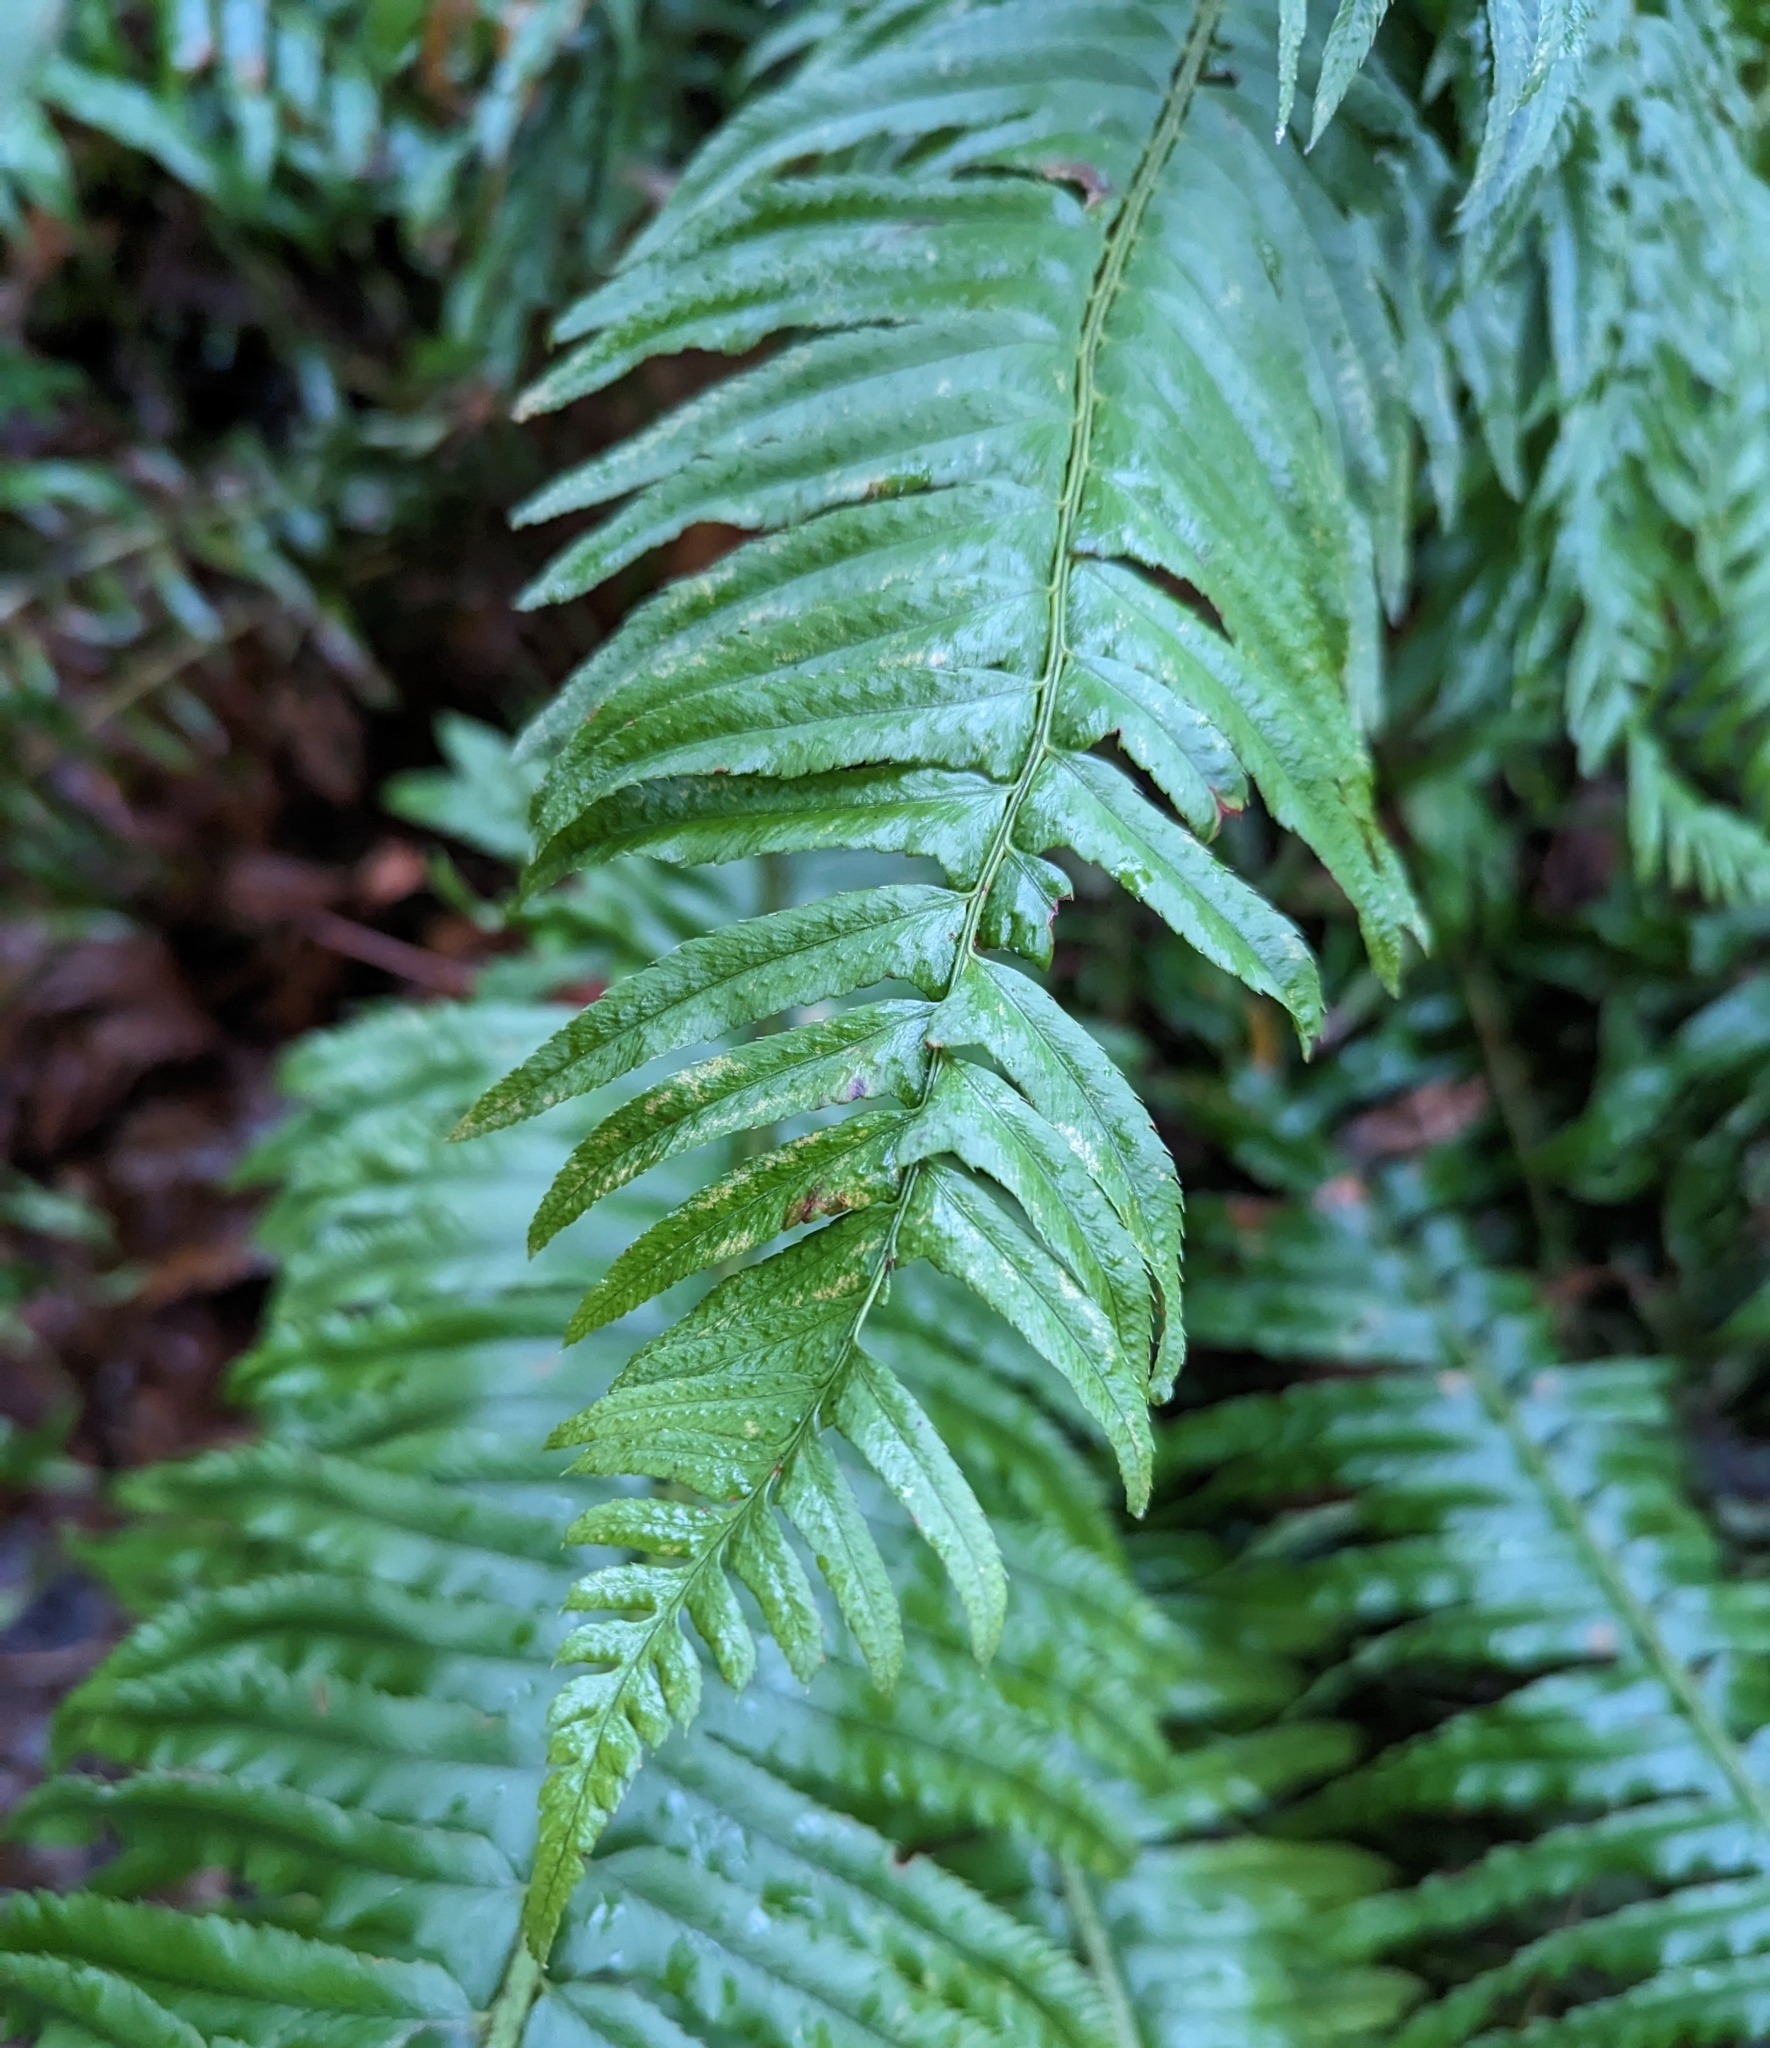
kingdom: Plantae
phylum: Tracheophyta
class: Polypodiopsida
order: Polypodiales
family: Dryopteridaceae
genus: Polystichum
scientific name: Polystichum munitum
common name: Western sword-fern
